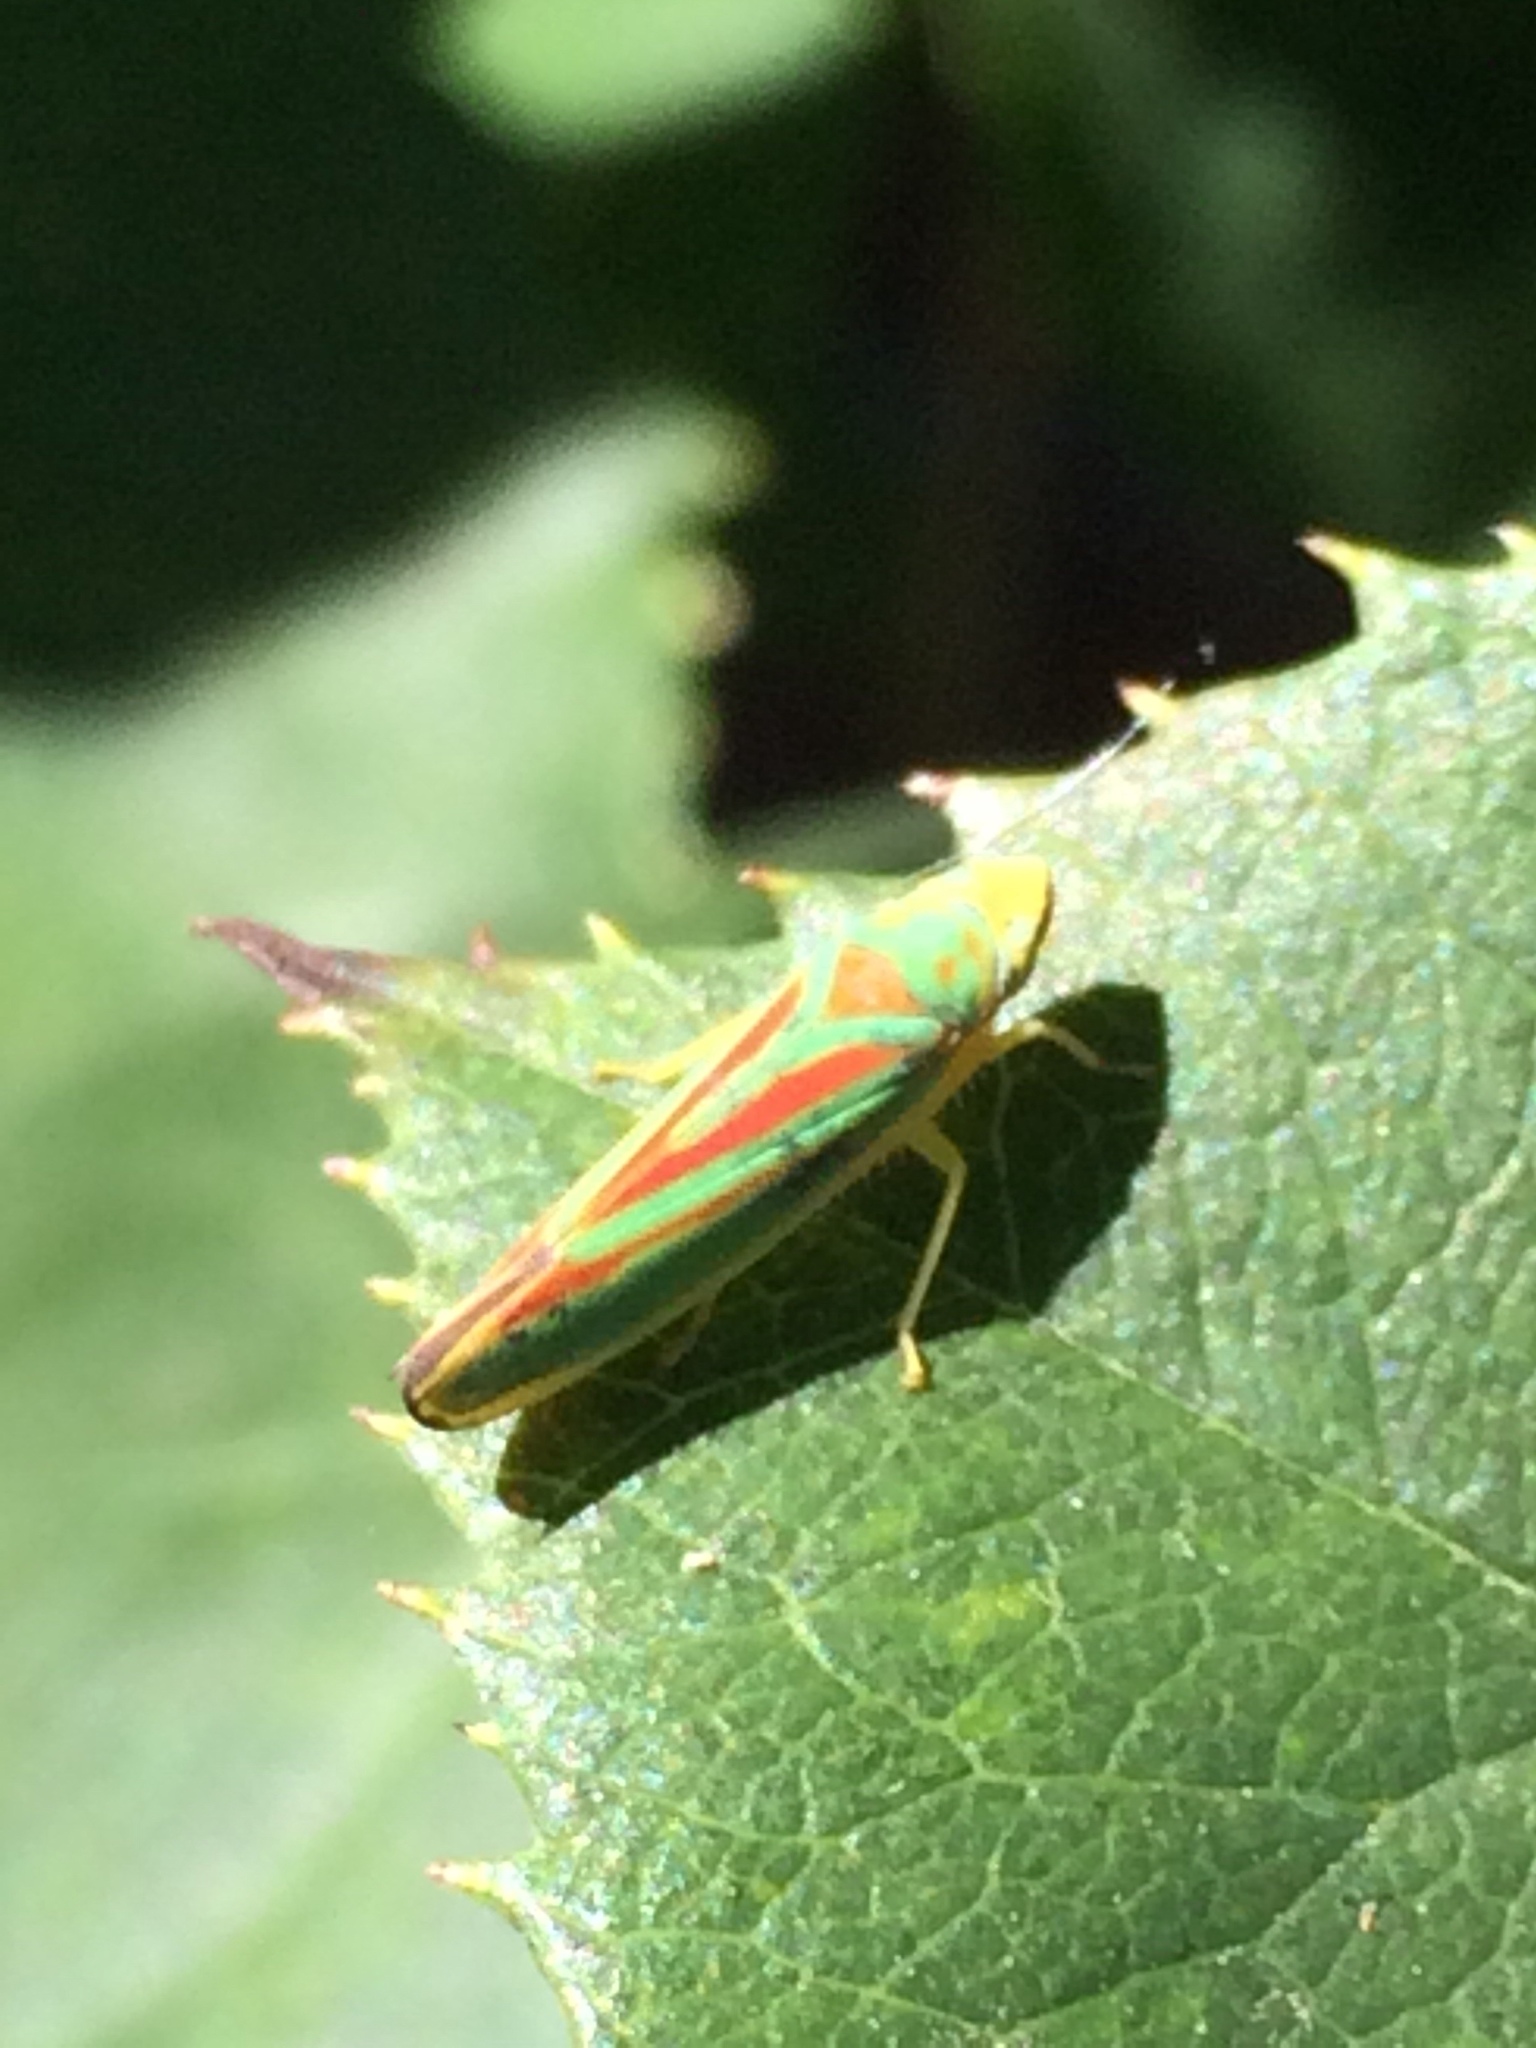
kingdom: Animalia
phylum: Arthropoda
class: Insecta
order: Hemiptera
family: Cicadellidae
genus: Graphocephala
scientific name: Graphocephala fennahi
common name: Rhododendron leafhopper
